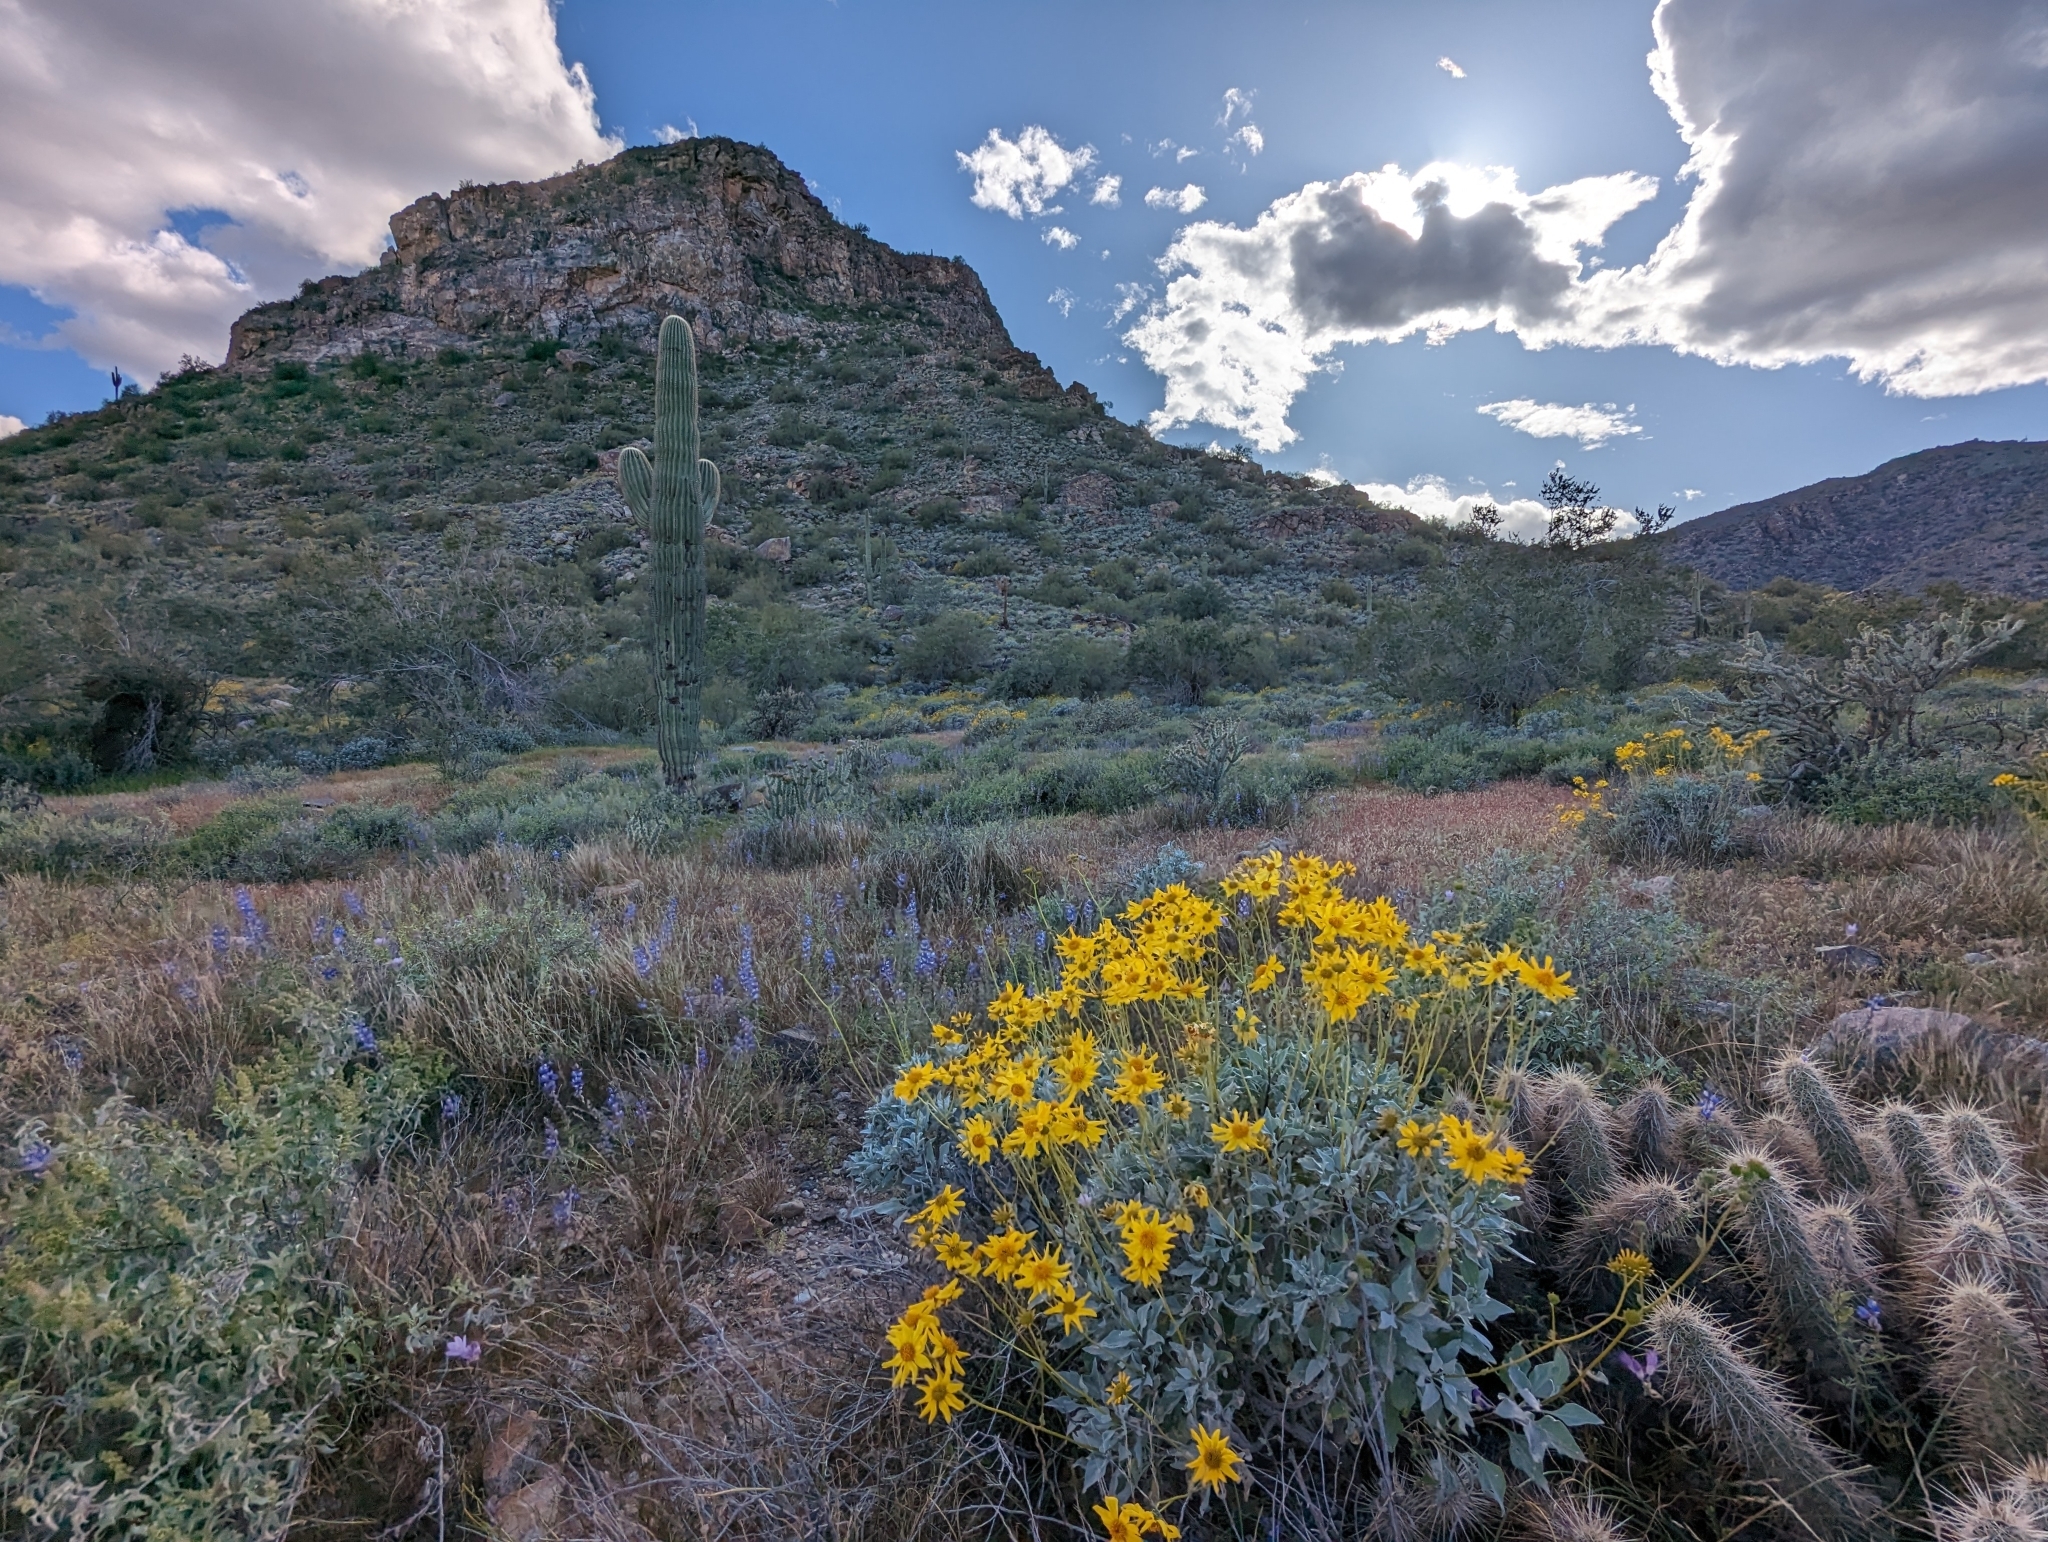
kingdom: Plantae
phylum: Tracheophyta
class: Magnoliopsida
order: Asterales
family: Asteraceae
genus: Encelia
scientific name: Encelia farinosa
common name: Brittlebush
